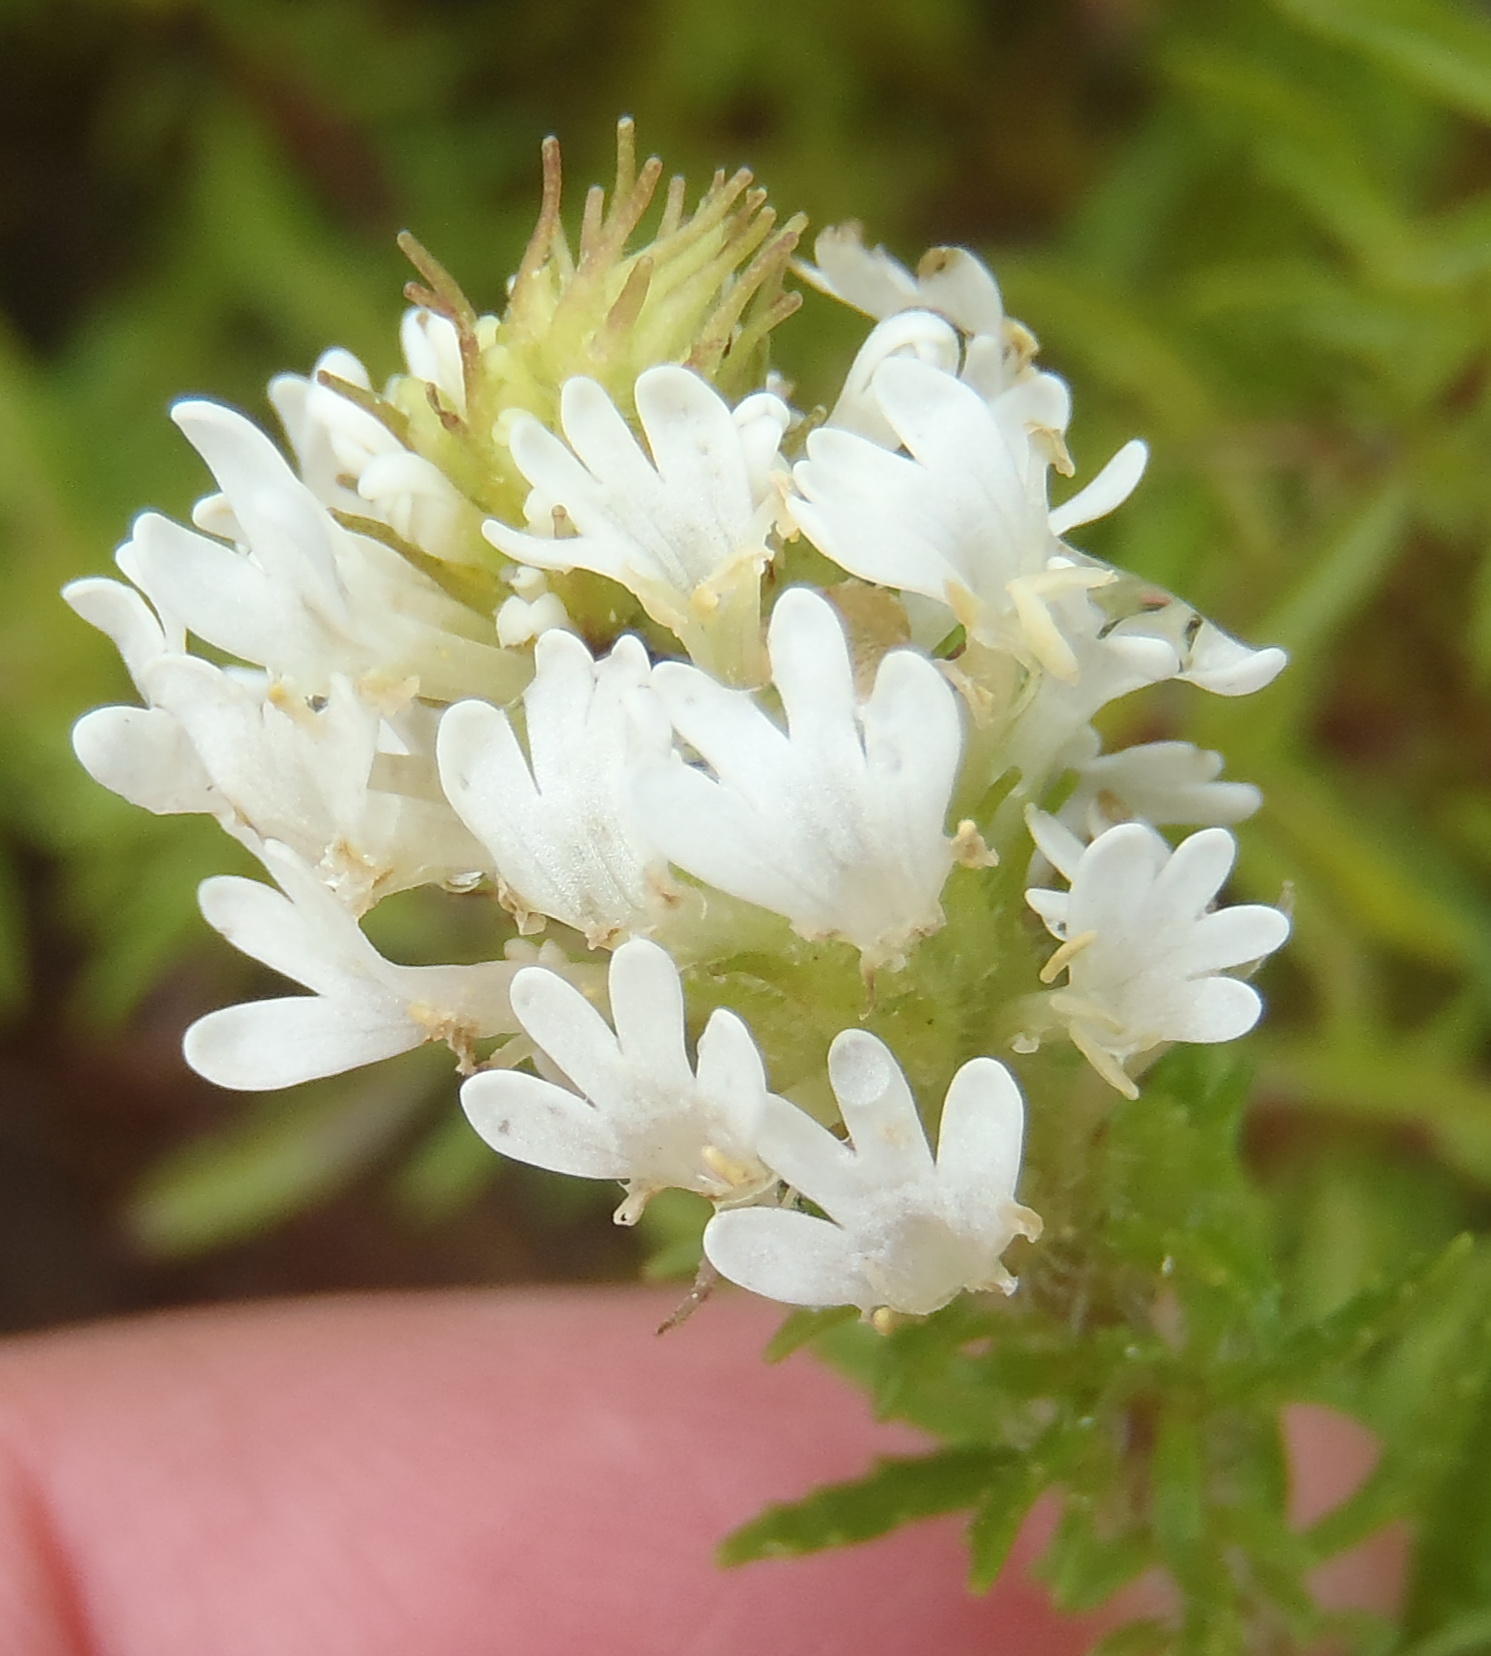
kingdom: Plantae
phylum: Tracheophyta
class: Magnoliopsida
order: Lamiales
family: Scrophulariaceae
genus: Dischisma
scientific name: Dischisma ciliatum
